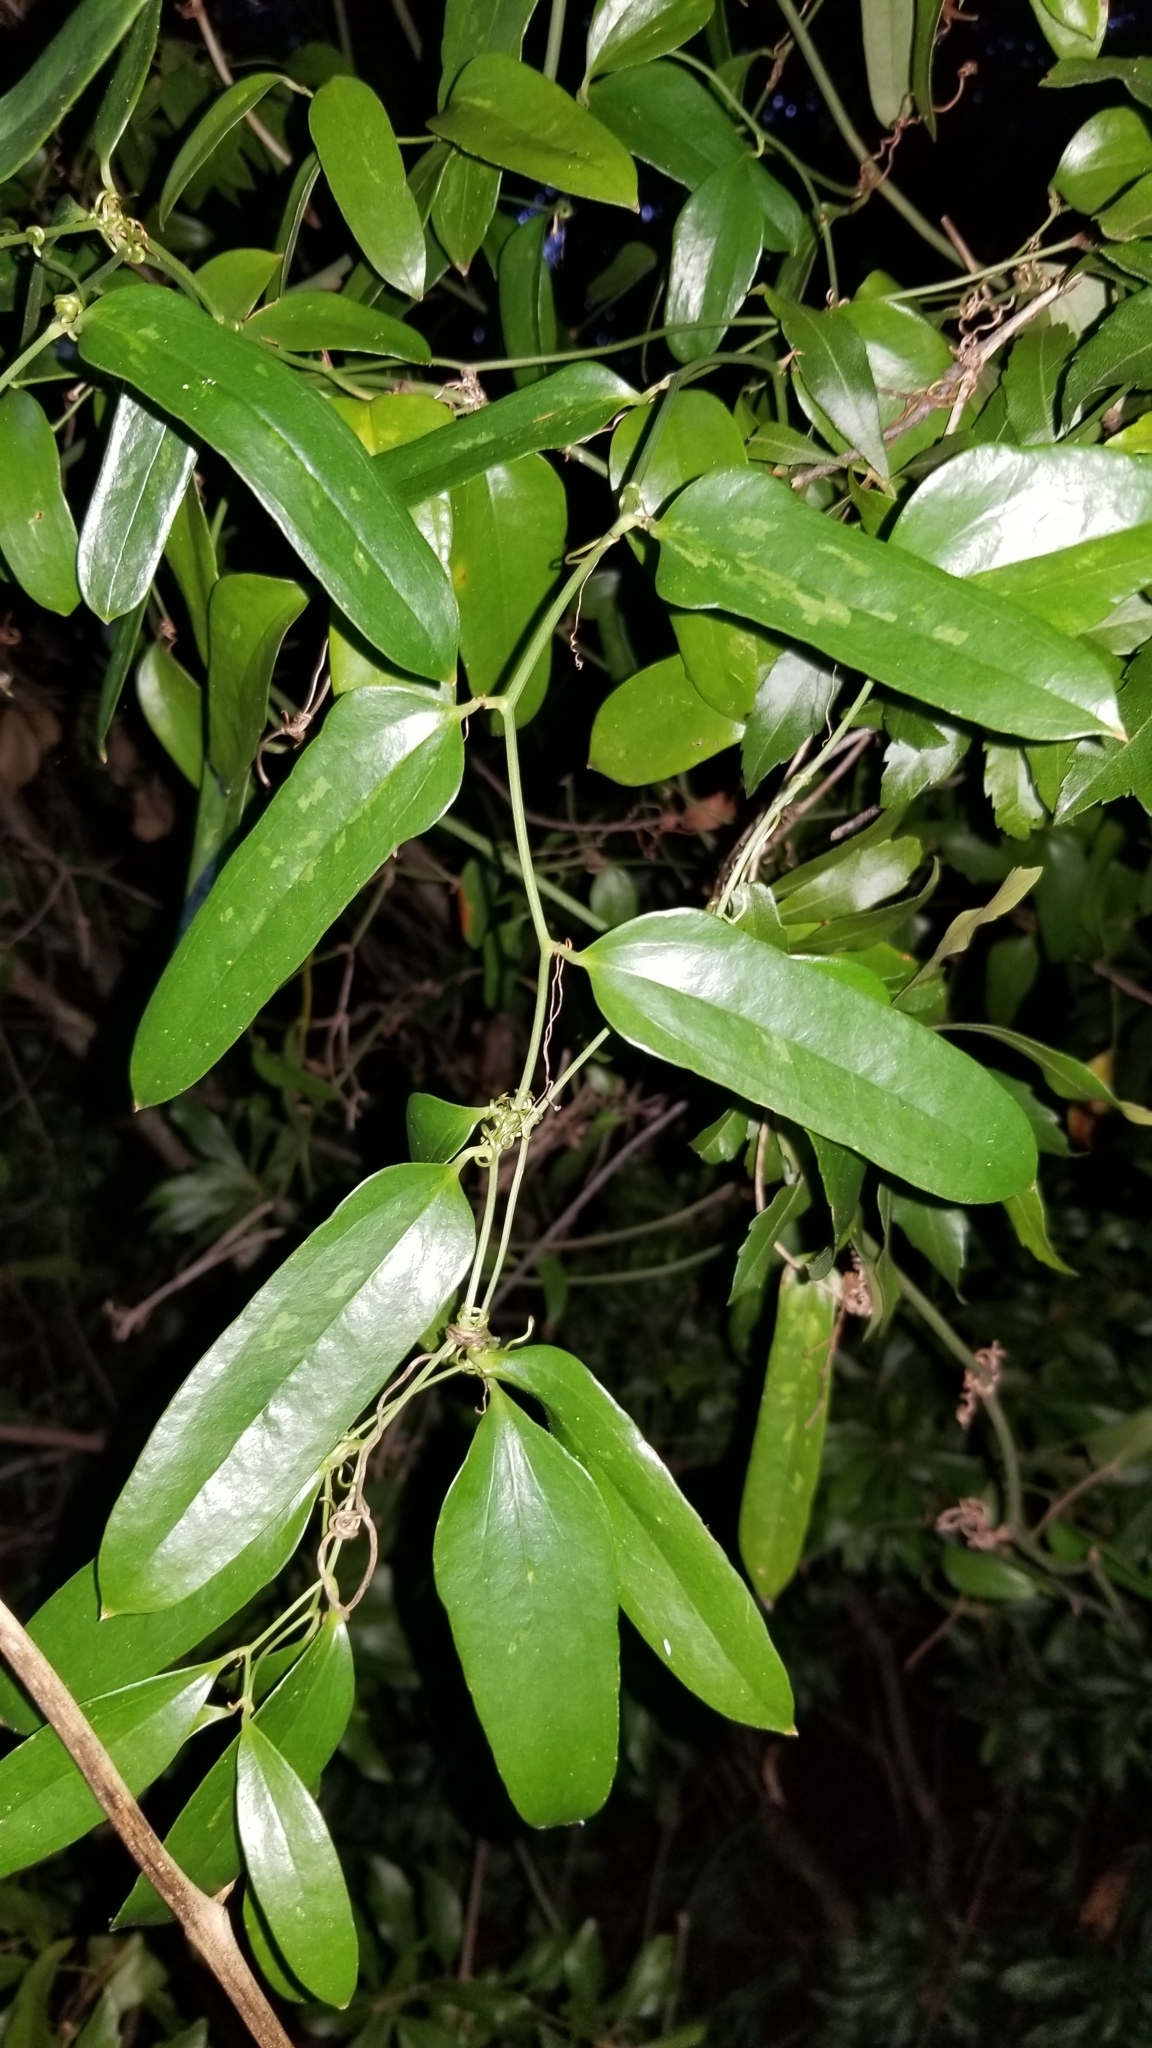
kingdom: Plantae
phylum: Tracheophyta
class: Liliopsida
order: Liliales
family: Smilacaceae
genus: Smilax
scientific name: Smilax laurifolia
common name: Bamboovine
